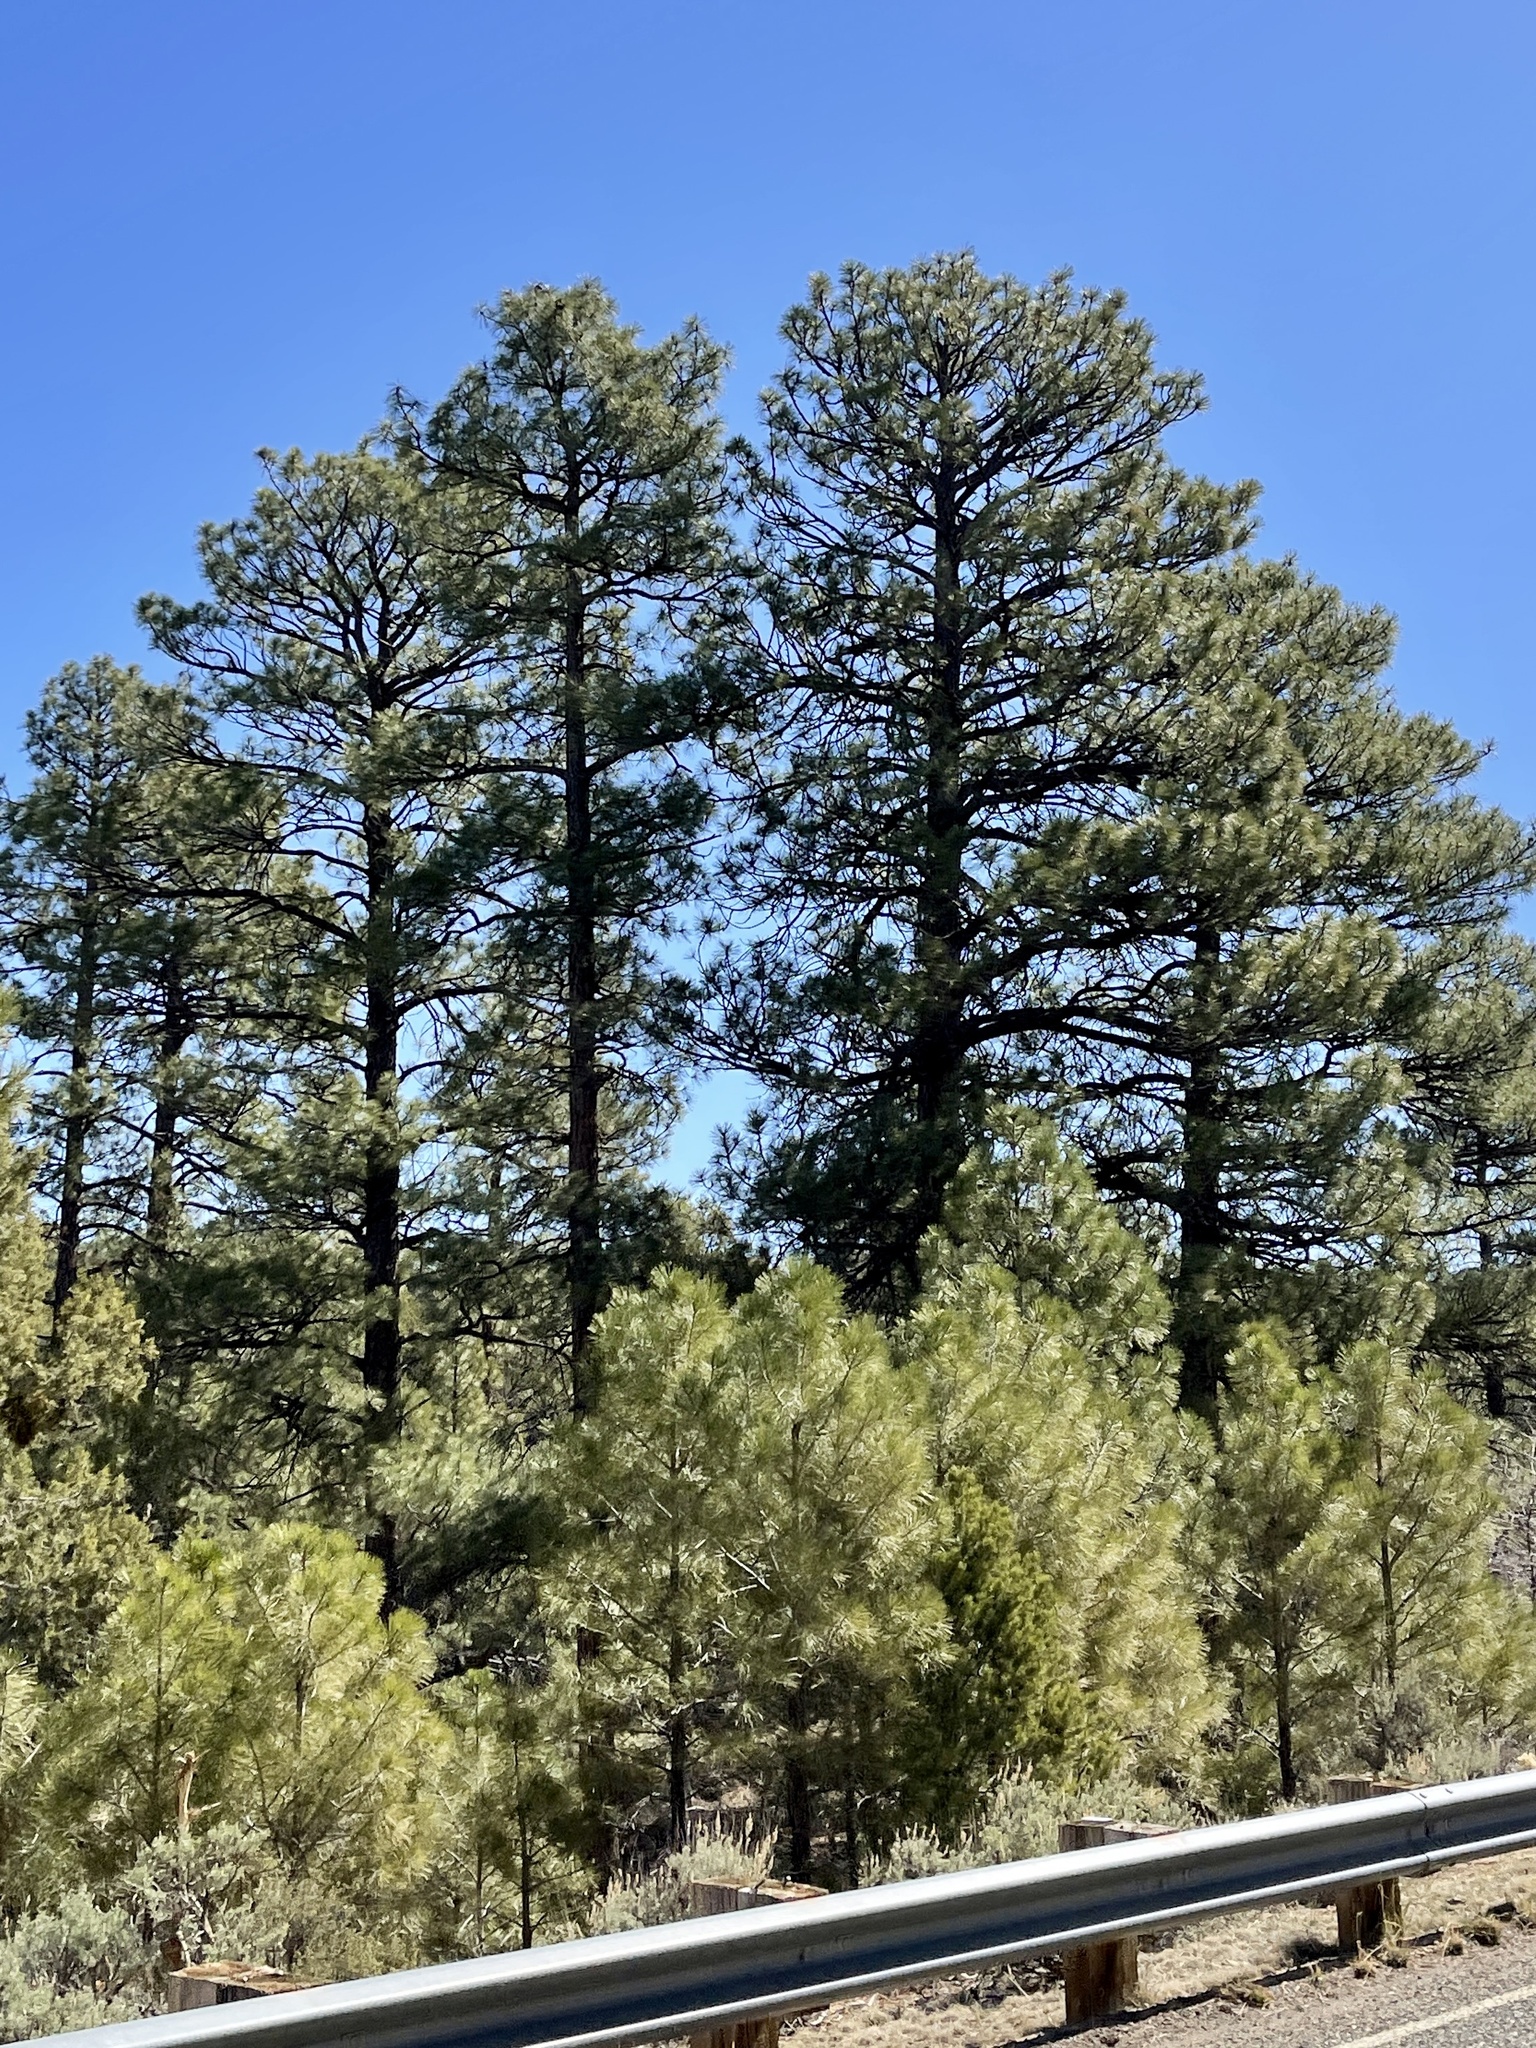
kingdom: Plantae
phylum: Tracheophyta
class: Pinopsida
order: Pinales
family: Pinaceae
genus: Pinus
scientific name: Pinus ponderosa
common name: Western yellow-pine
